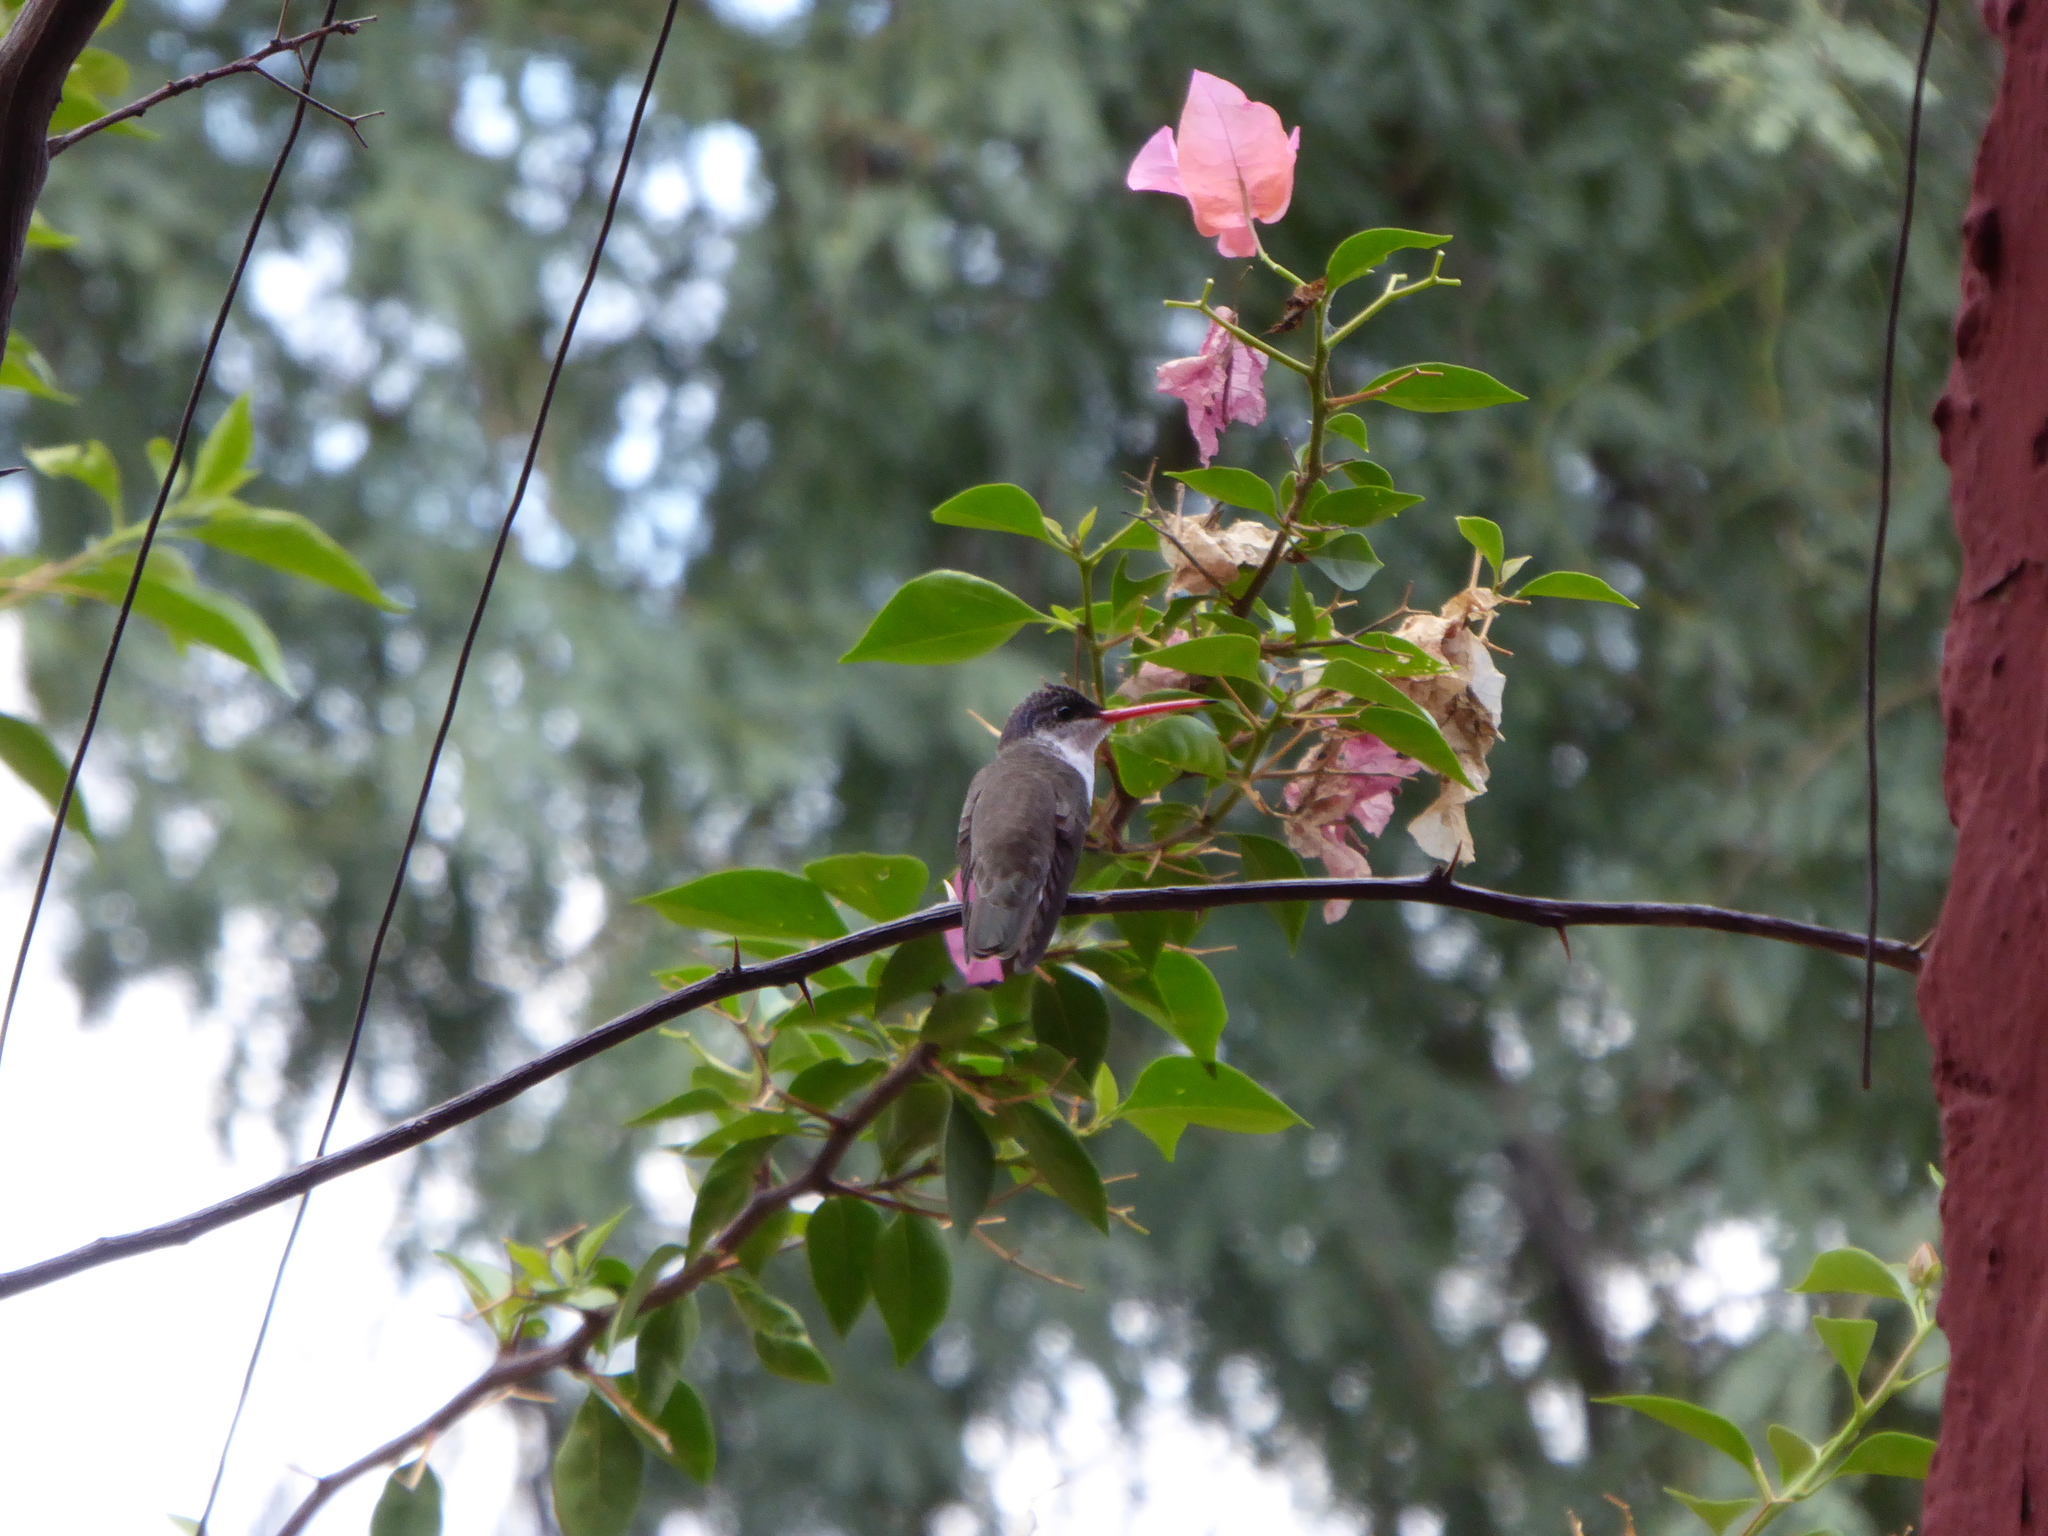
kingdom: Animalia
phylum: Chordata
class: Aves
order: Apodiformes
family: Trochilidae
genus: Leucolia
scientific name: Leucolia violiceps
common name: Violet-crowned hummingbird
